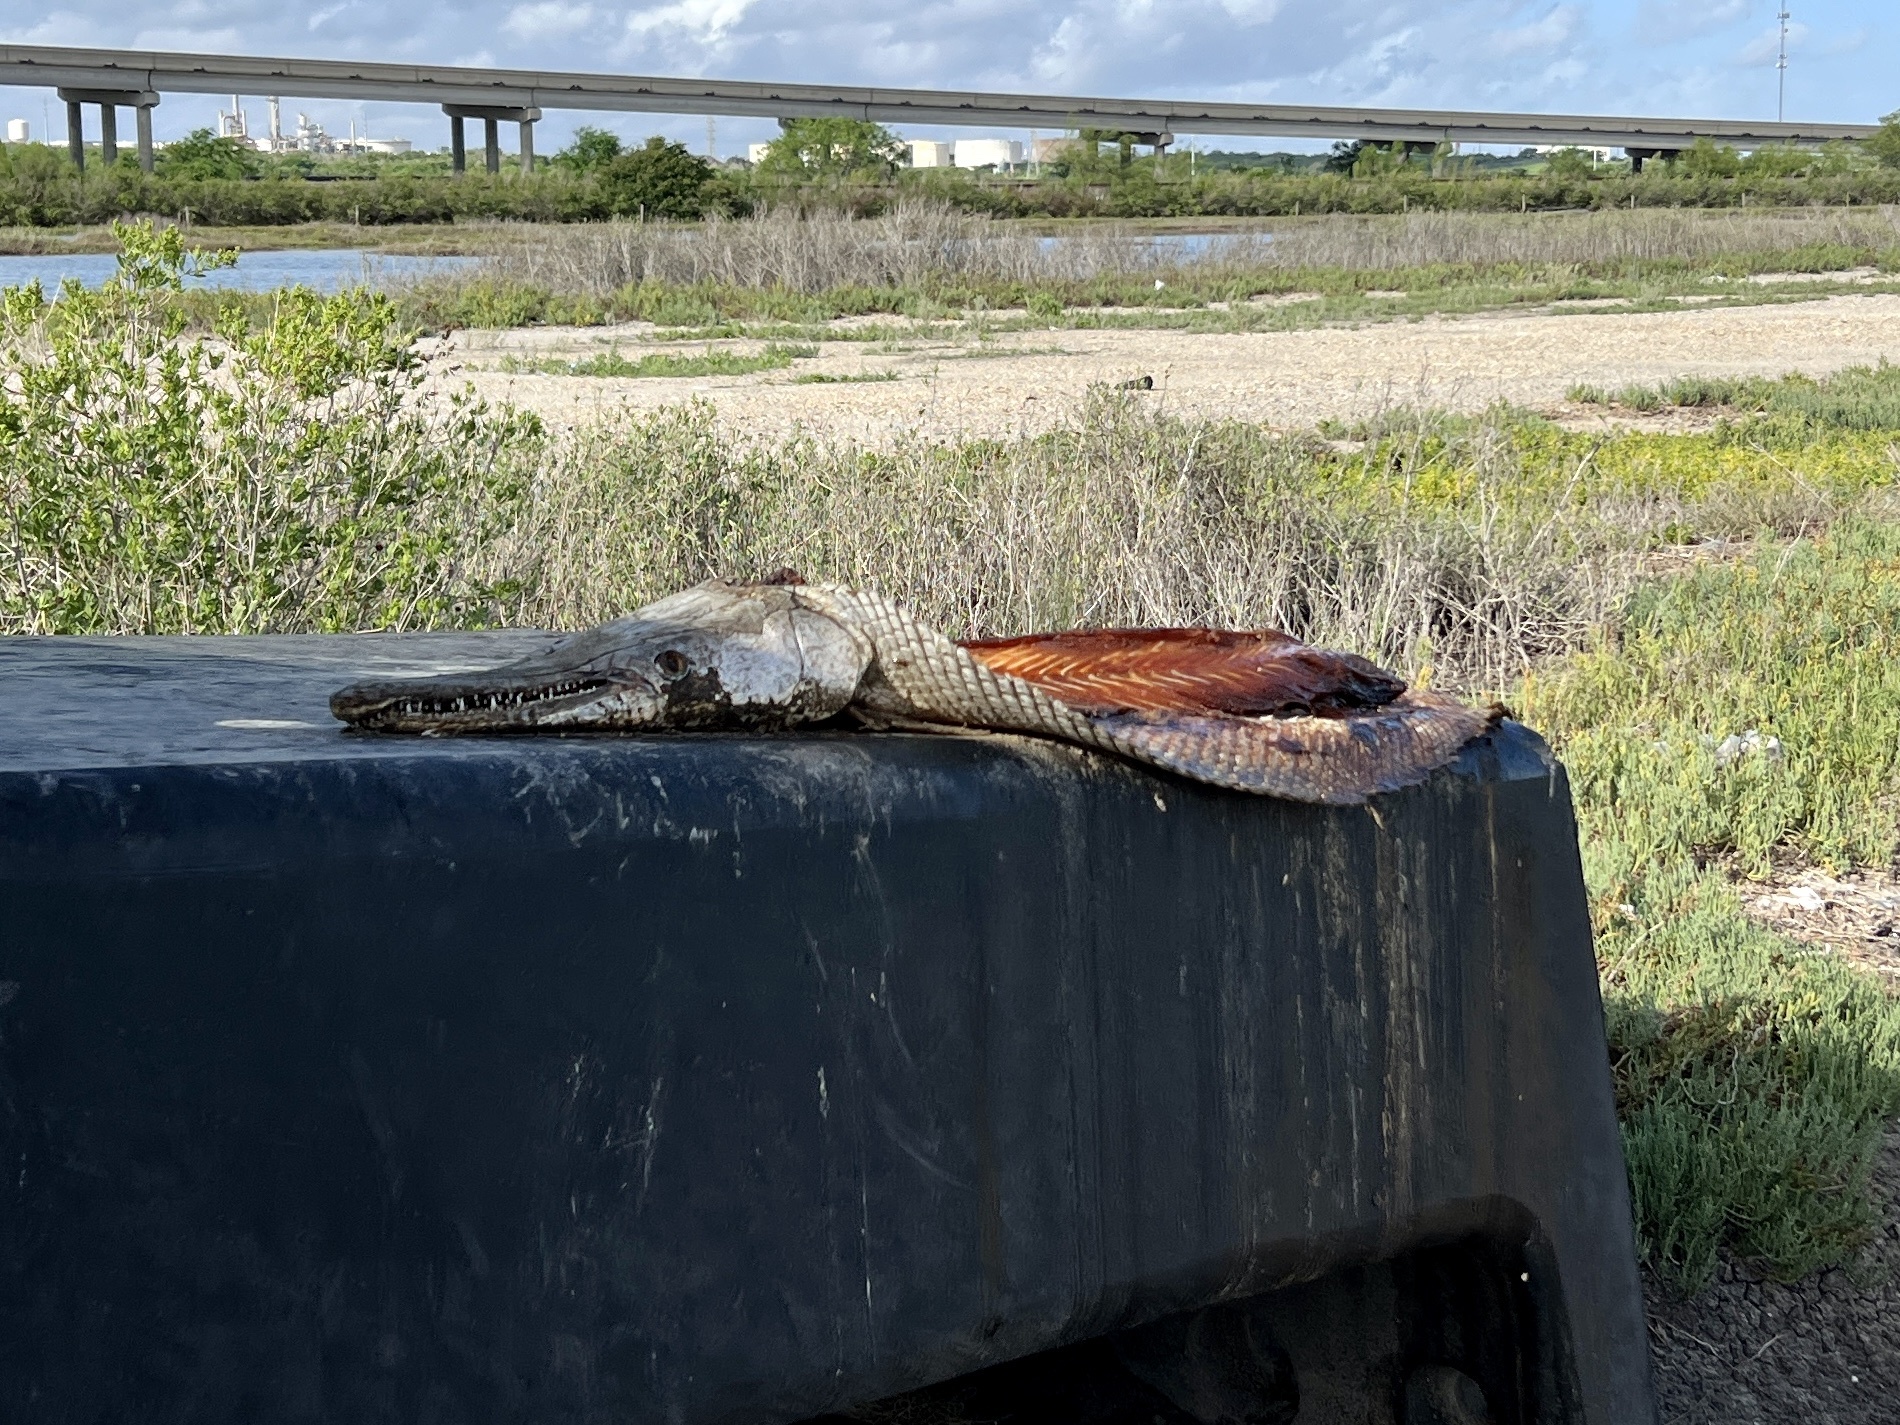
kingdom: Animalia
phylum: Chordata
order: Lepisosteiformes
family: Lepisosteidae
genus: Atractosteus
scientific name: Atractosteus spatula
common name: Alligator gar
